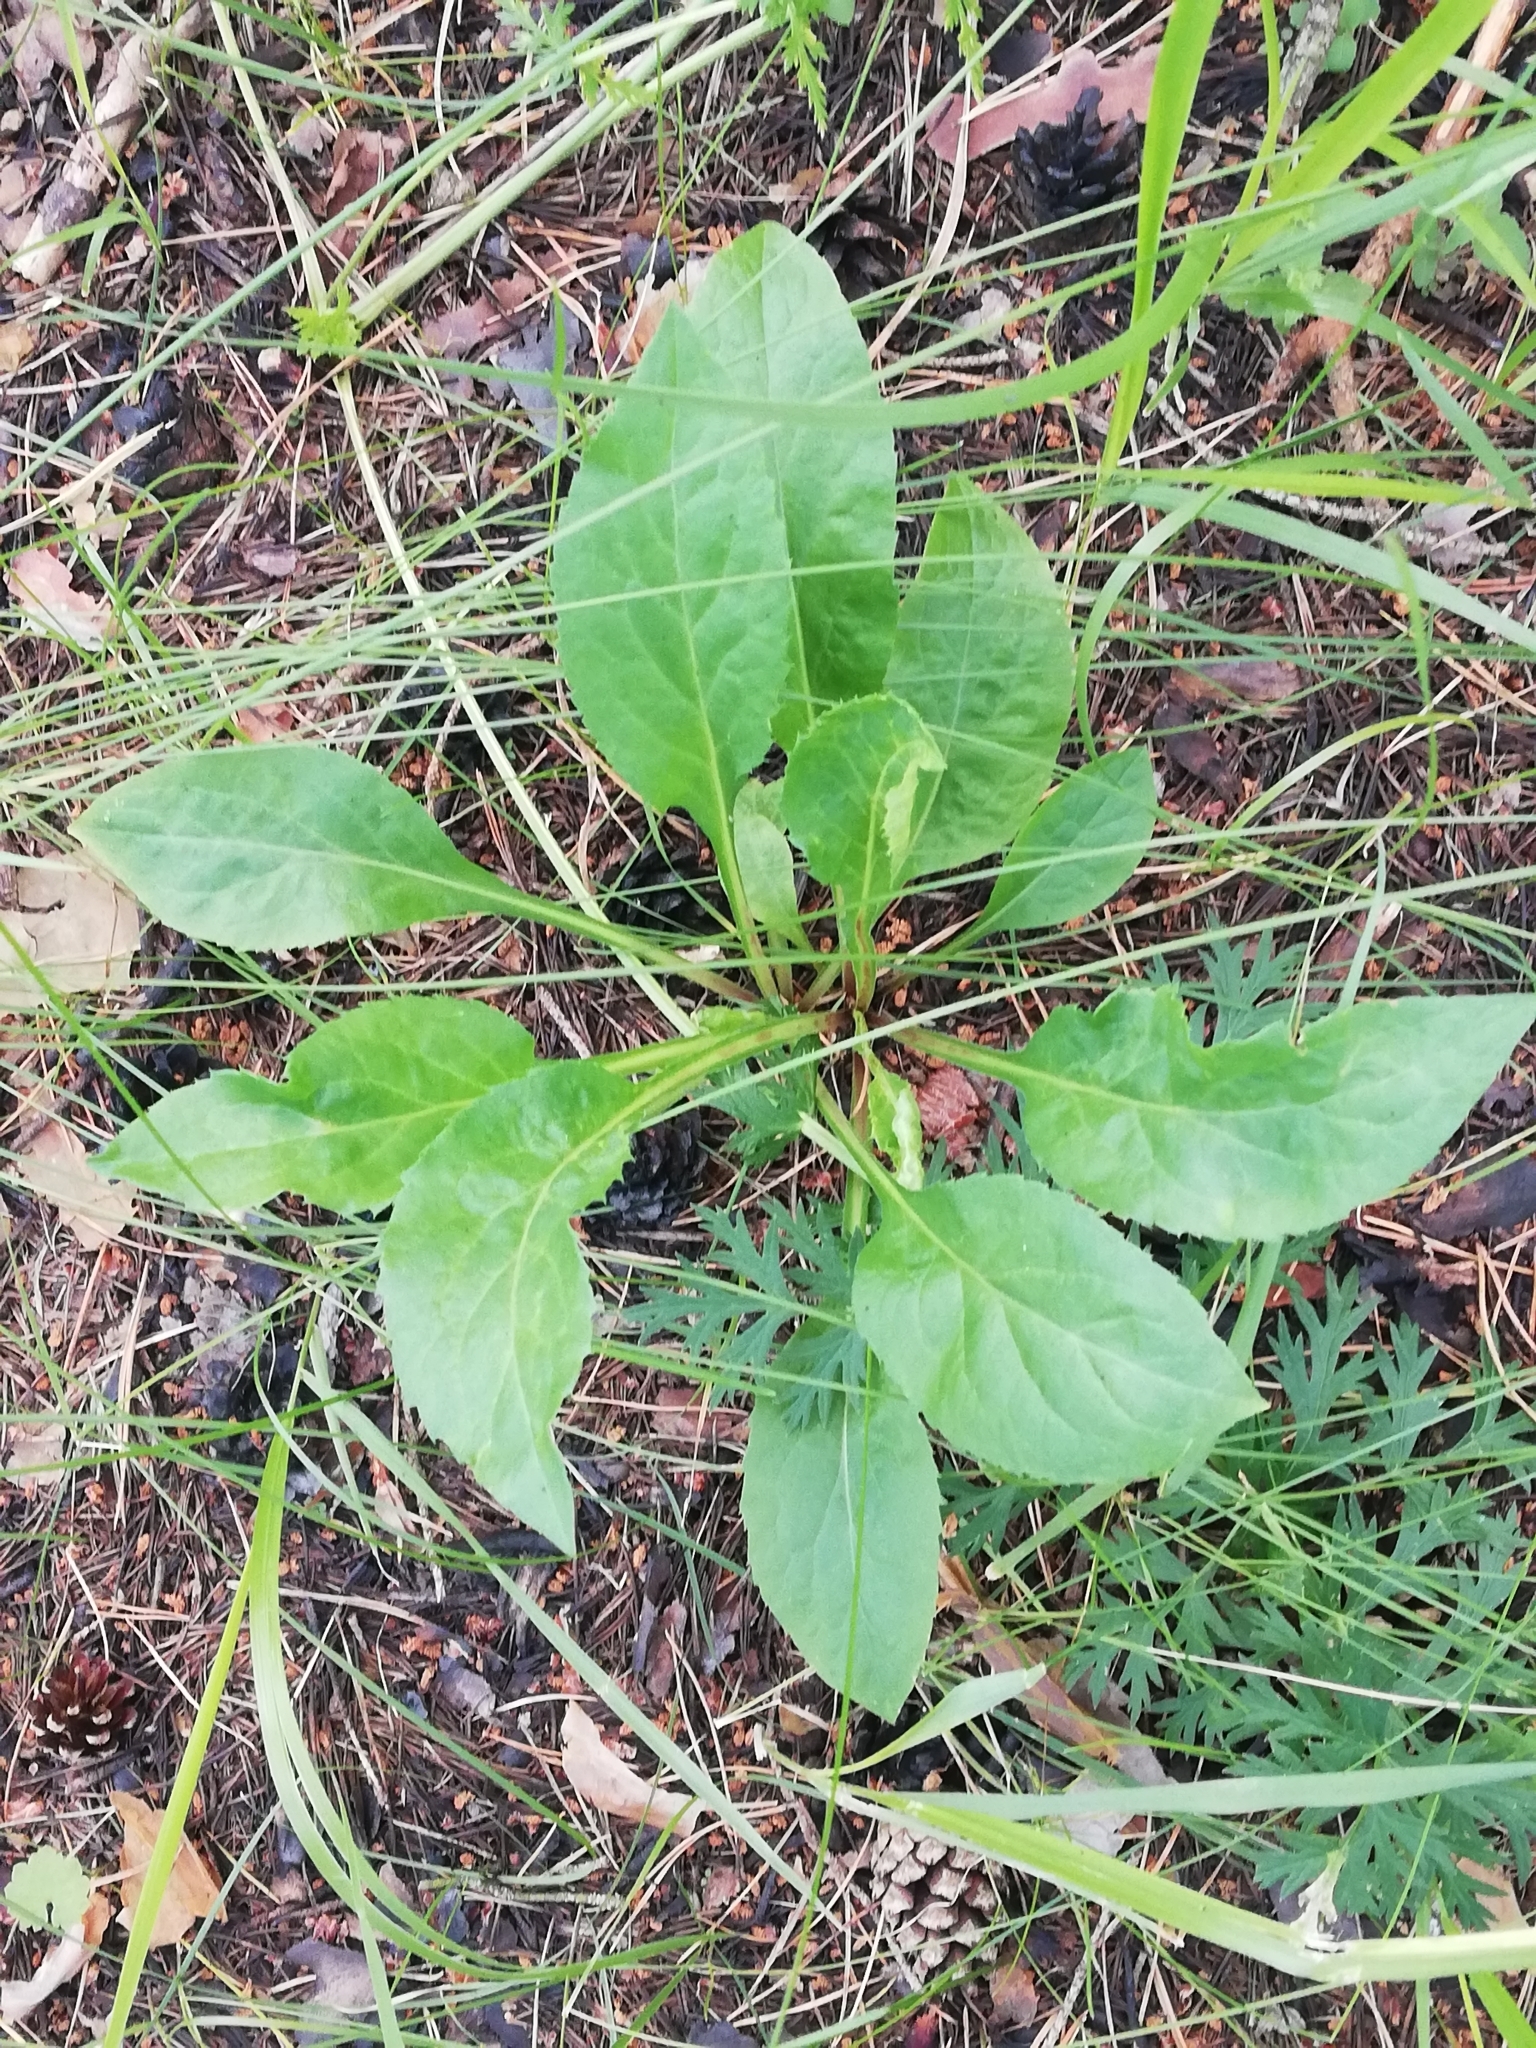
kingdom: Plantae
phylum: Tracheophyta
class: Magnoliopsida
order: Asterales
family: Asteraceae
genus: Solidago
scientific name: Solidago virgaurea
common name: Goldenrod
